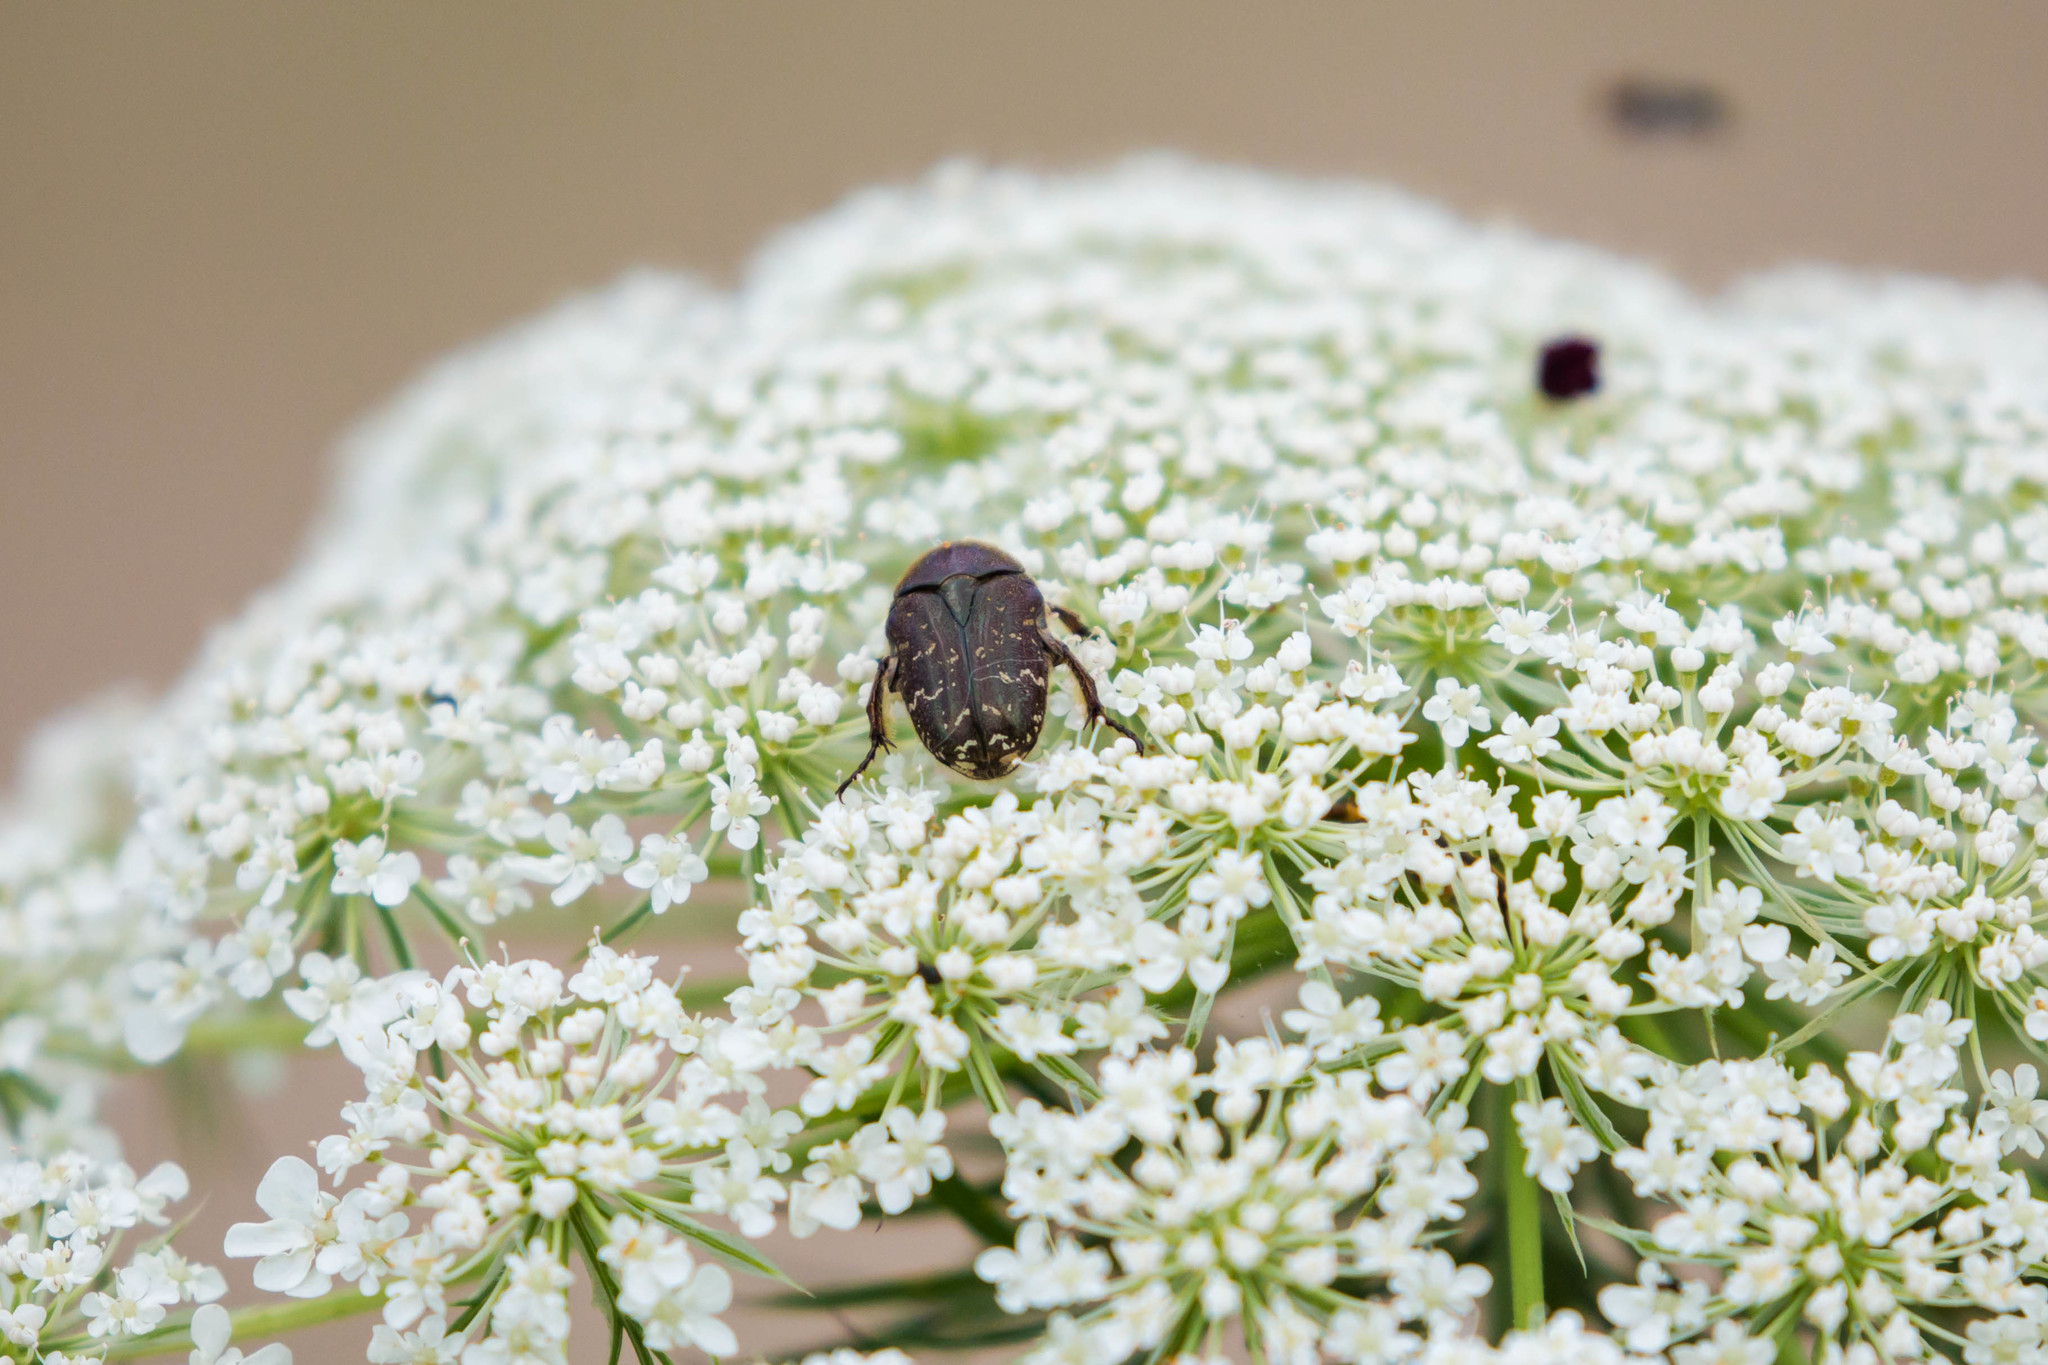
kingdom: Animalia
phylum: Arthropoda
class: Insecta
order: Coleoptera
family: Scarabaeidae
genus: Euphoria
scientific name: Euphoria sepulcralis
